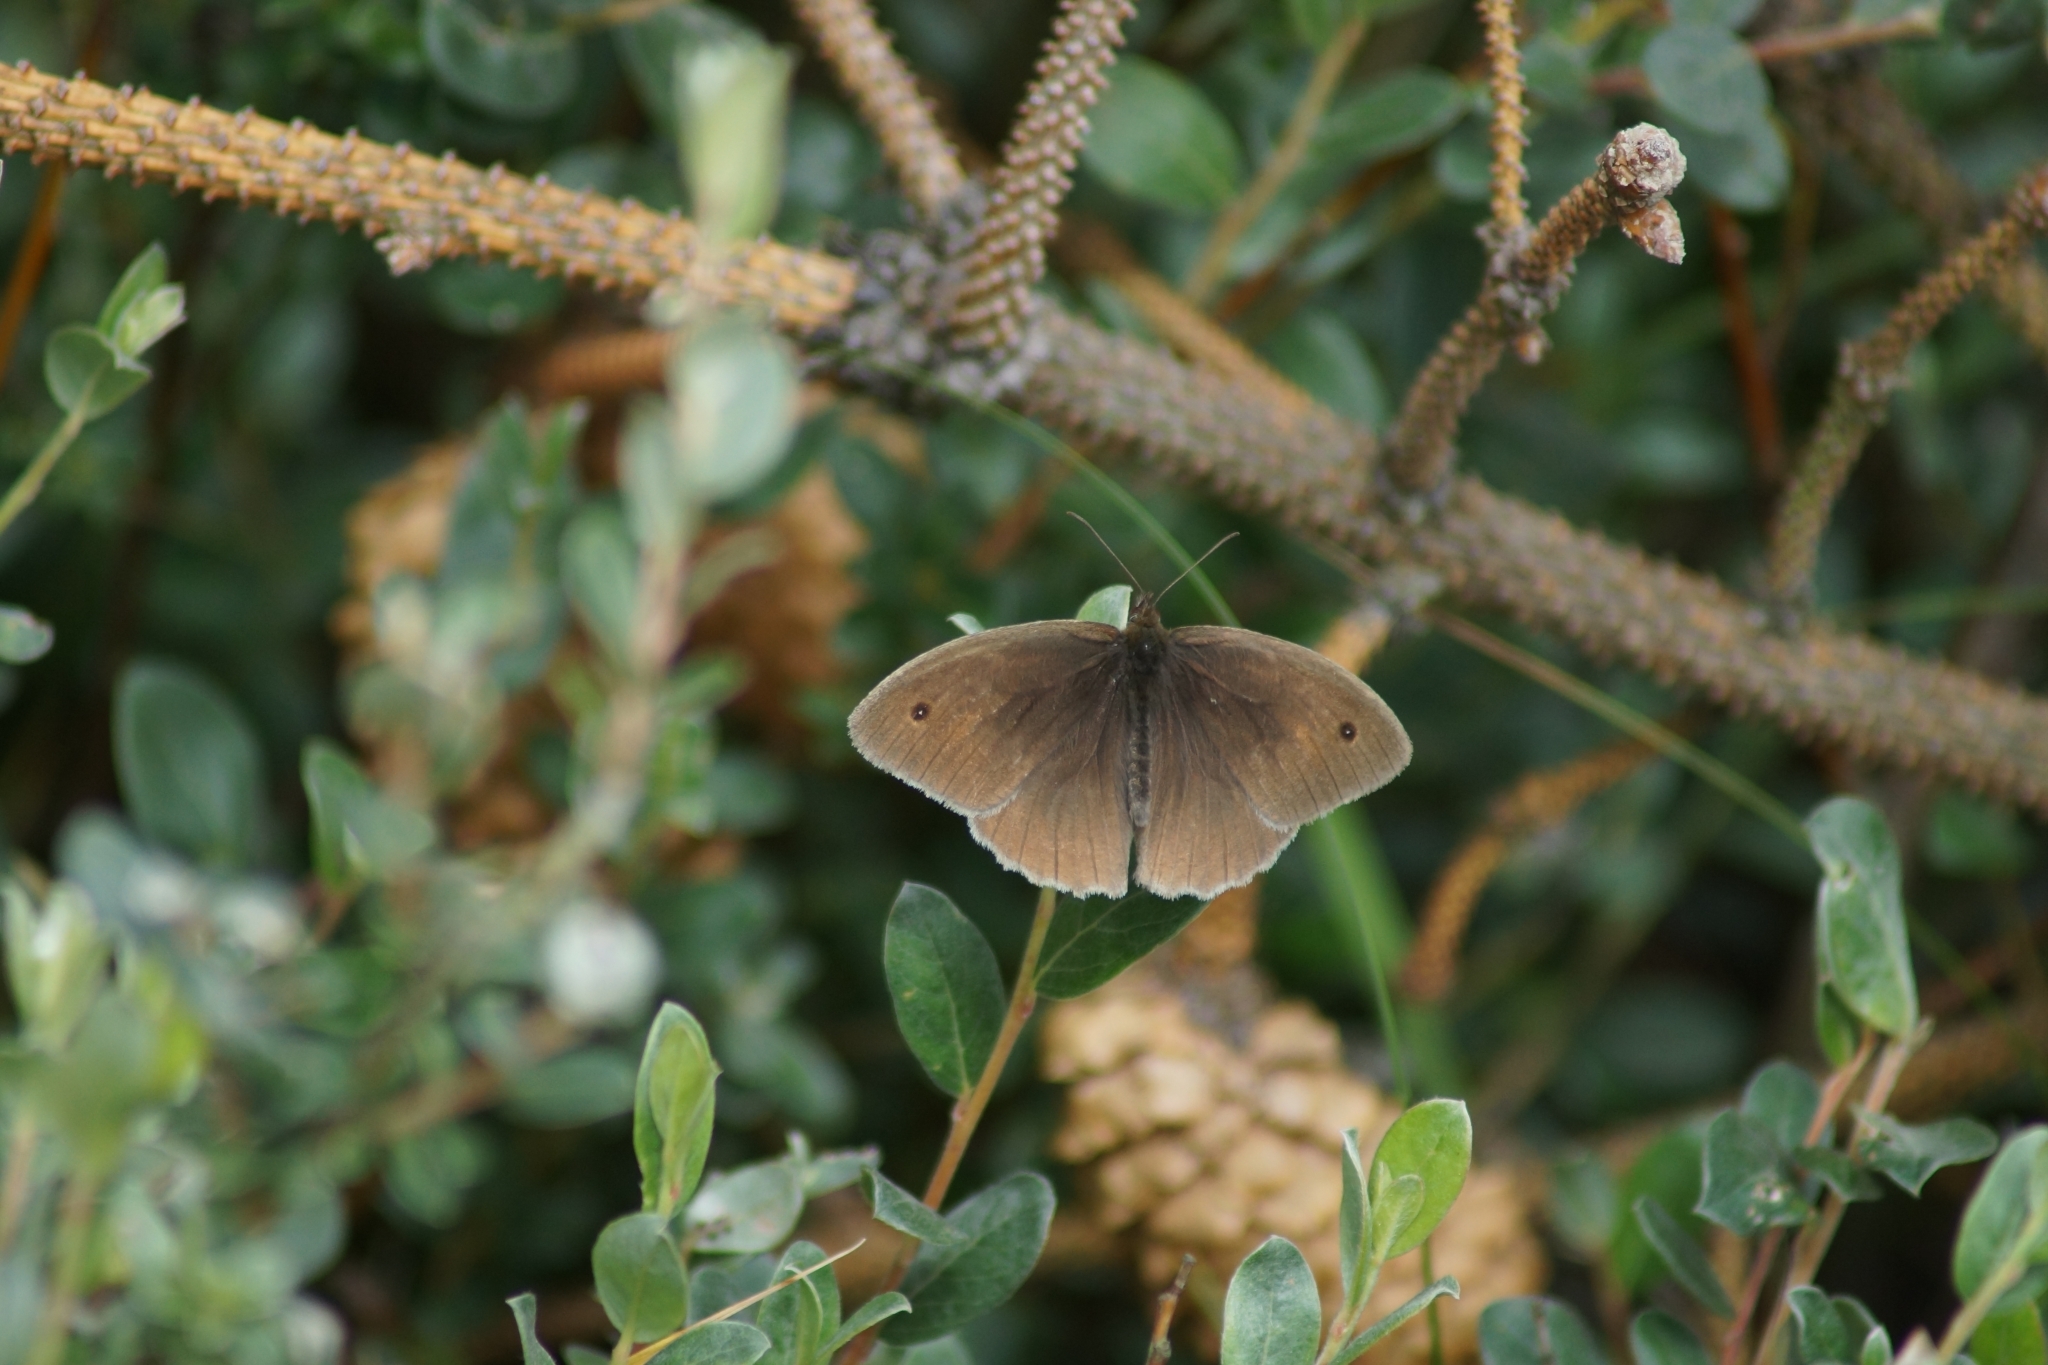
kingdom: Animalia
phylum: Arthropoda
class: Insecta
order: Lepidoptera
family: Nymphalidae
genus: Maniola
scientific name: Maniola jurtina
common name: Meadow brown
